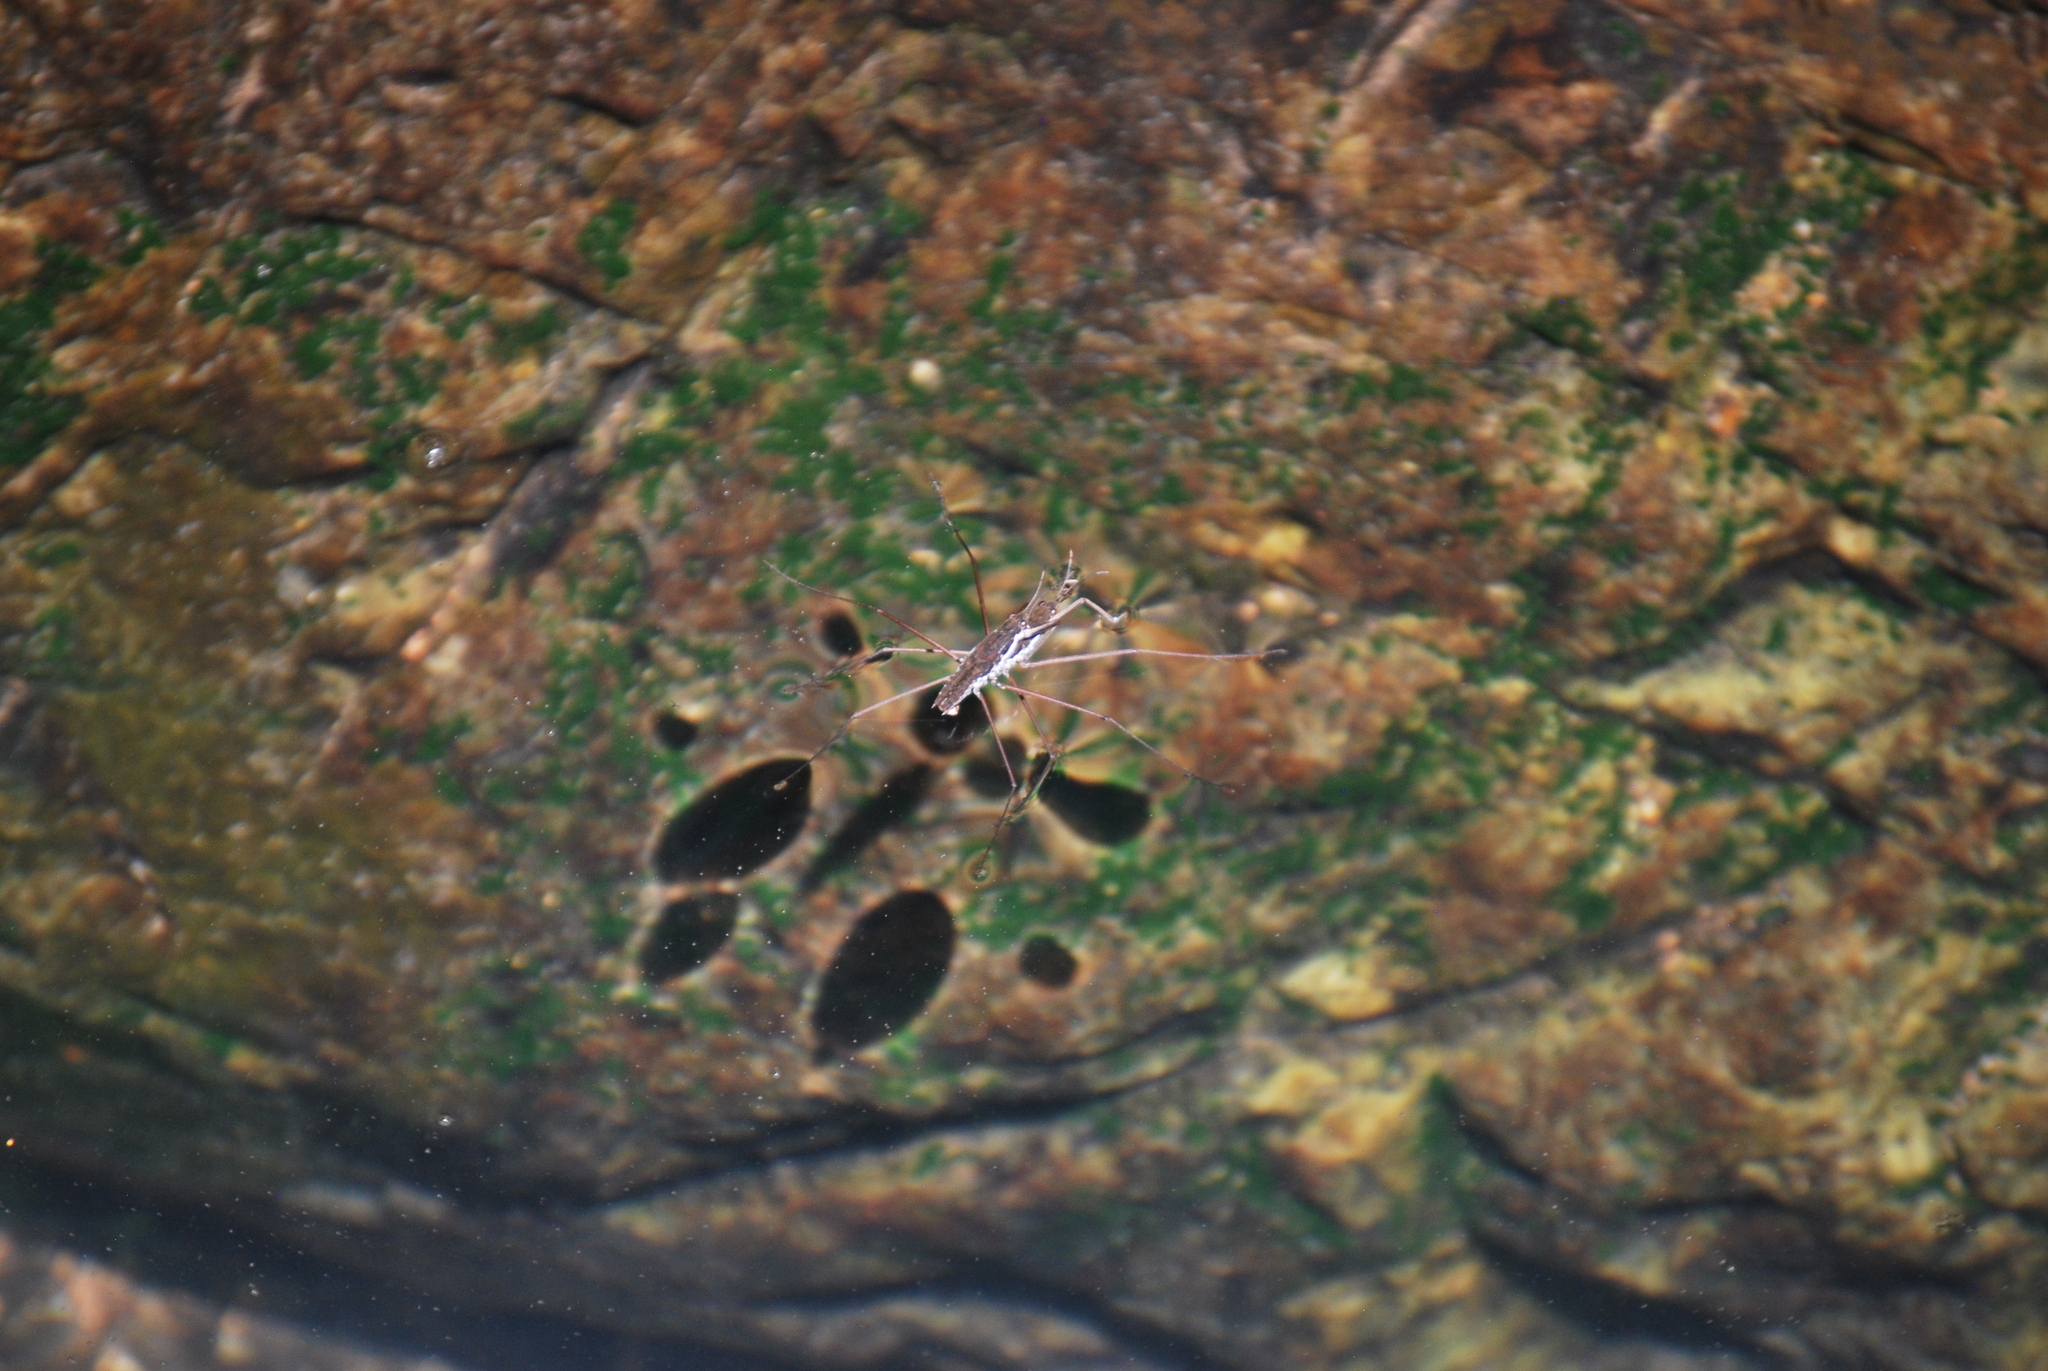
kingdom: Animalia
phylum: Arthropoda
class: Insecta
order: Hemiptera
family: Gerridae
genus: Aquarius
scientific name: Aquarius remigis
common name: Common water strider
